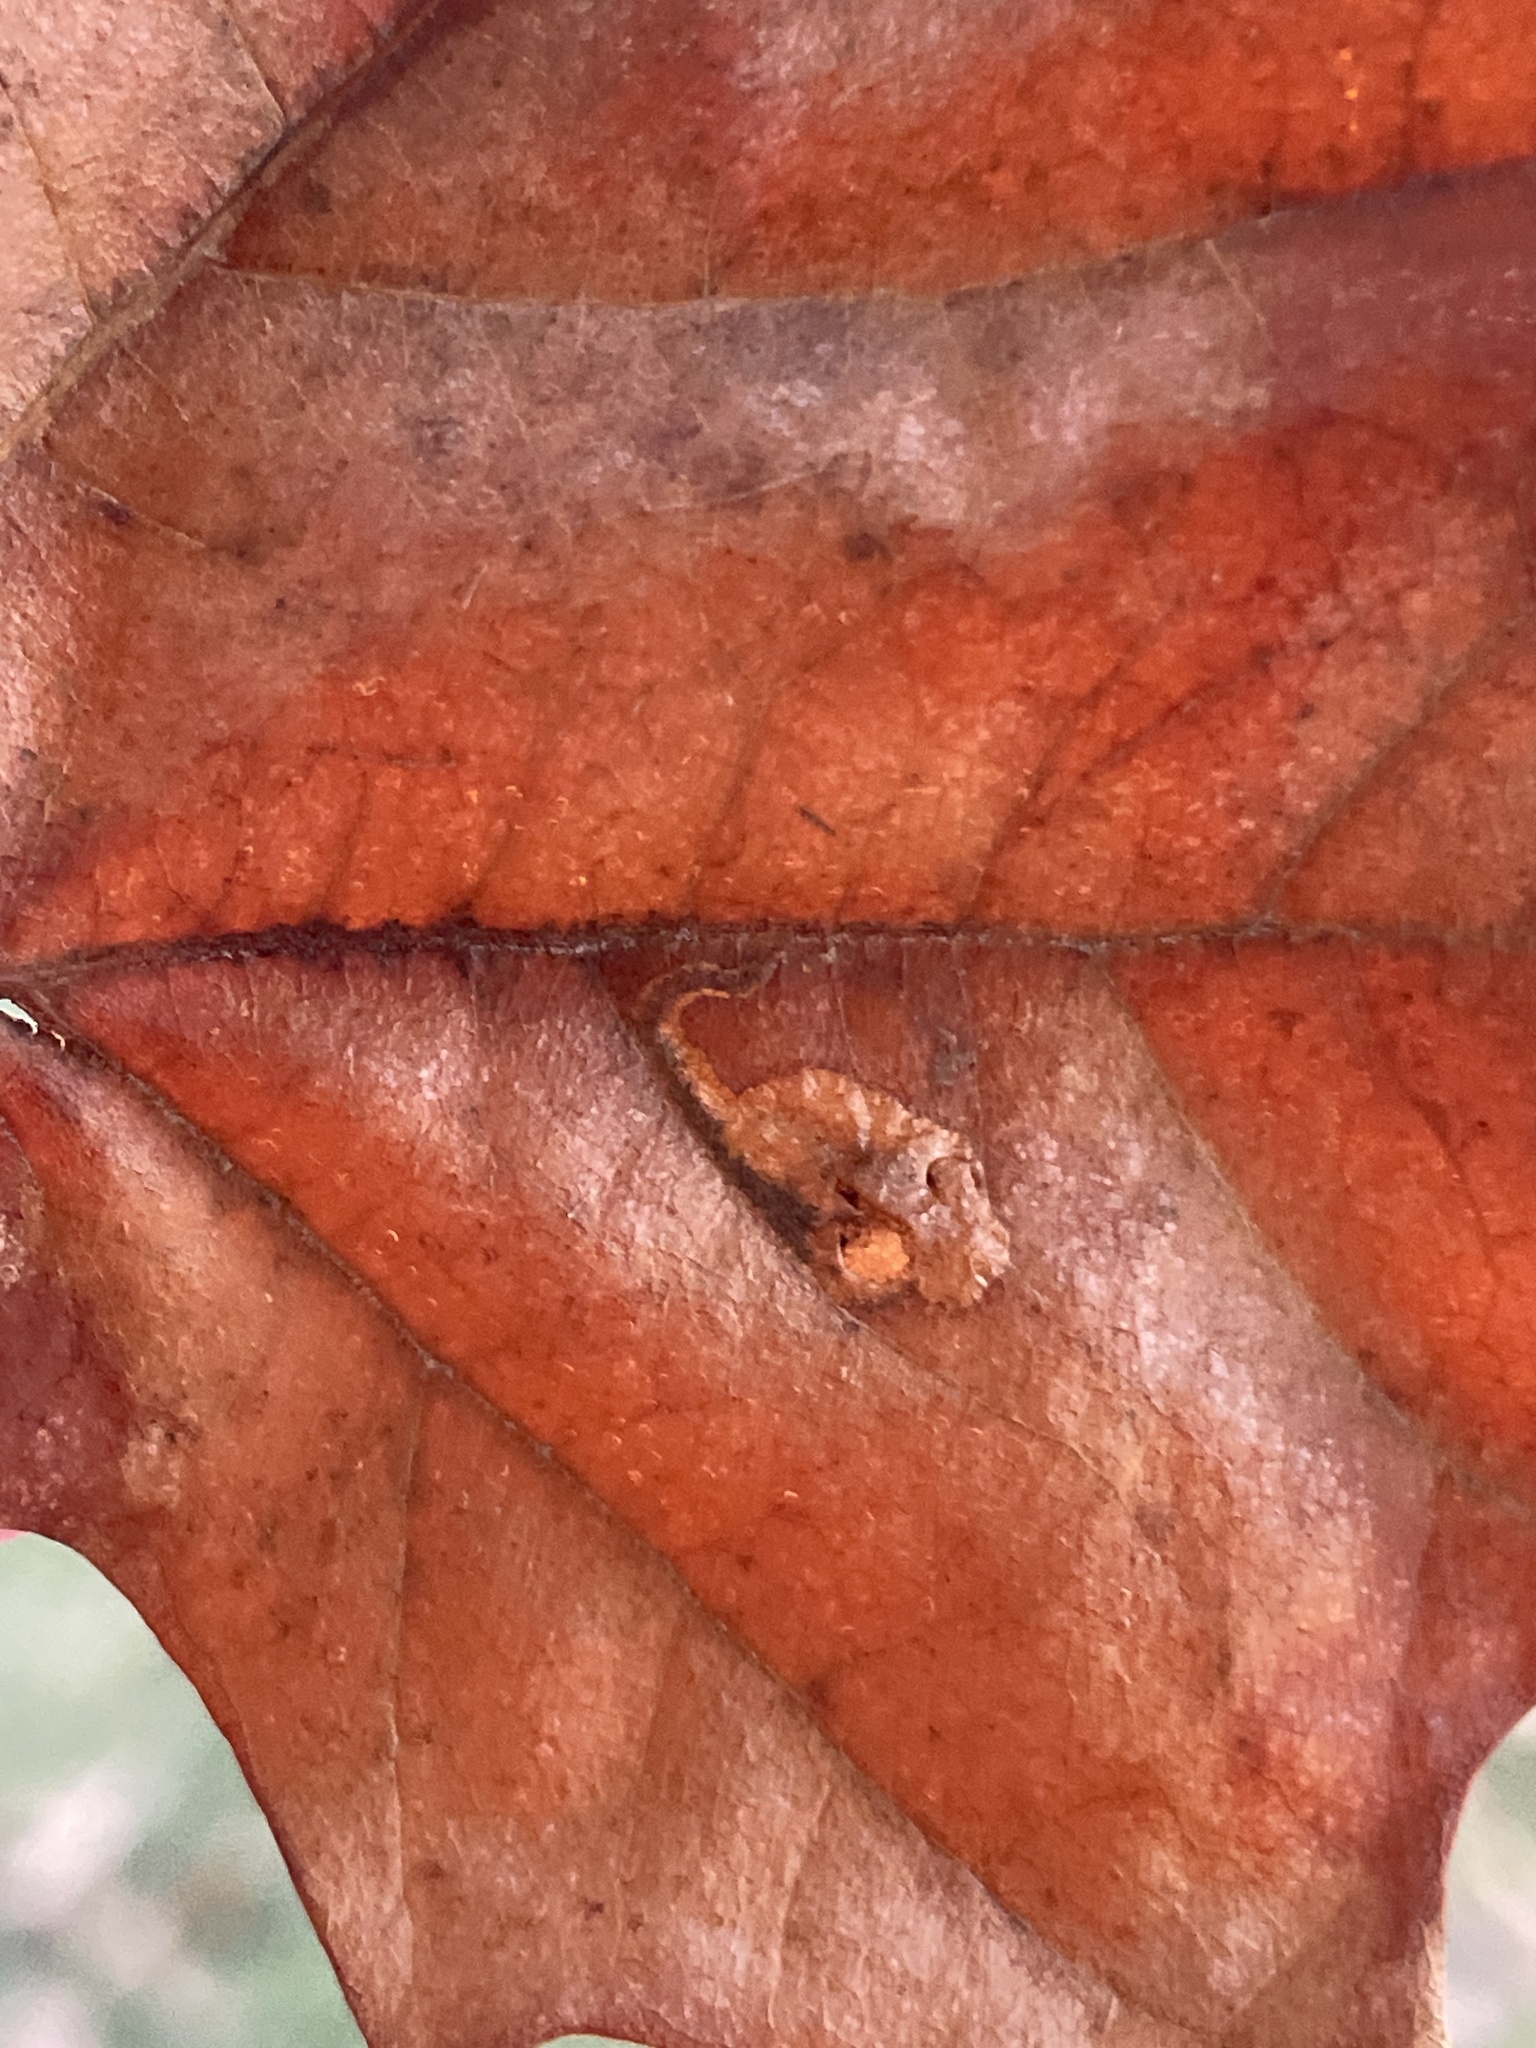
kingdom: Animalia
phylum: Arthropoda
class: Insecta
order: Lepidoptera
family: Nepticulidae
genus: Ectoedemia
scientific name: Ectoedemia clemensella
